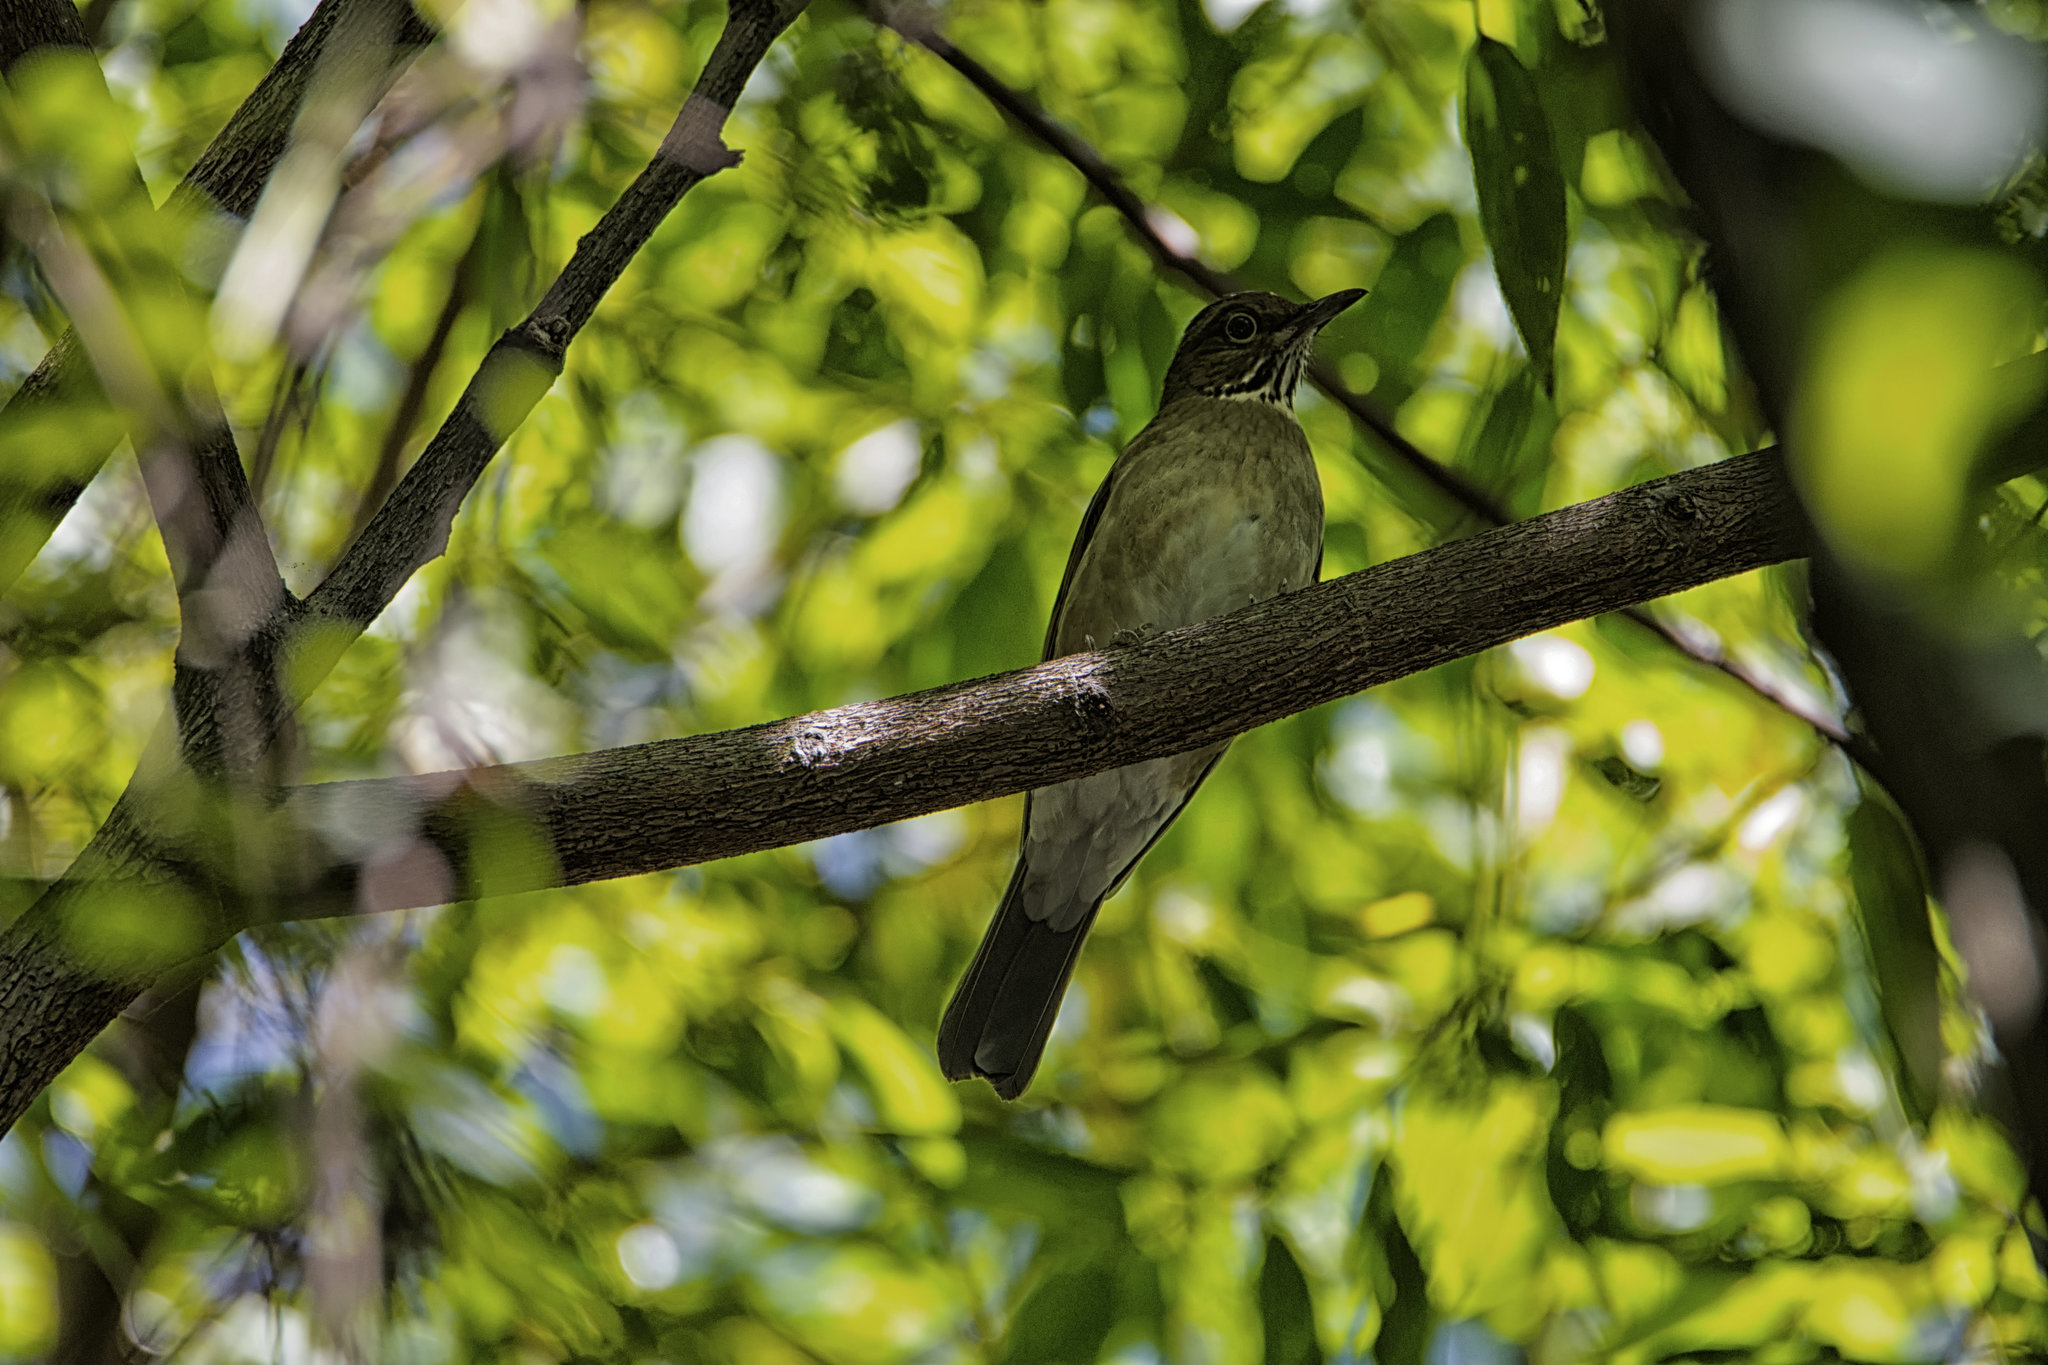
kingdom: Animalia
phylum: Chordata
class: Aves
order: Passeriformes
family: Turdidae
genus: Turdus
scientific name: Turdus assimilis
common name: White-throated thrush
